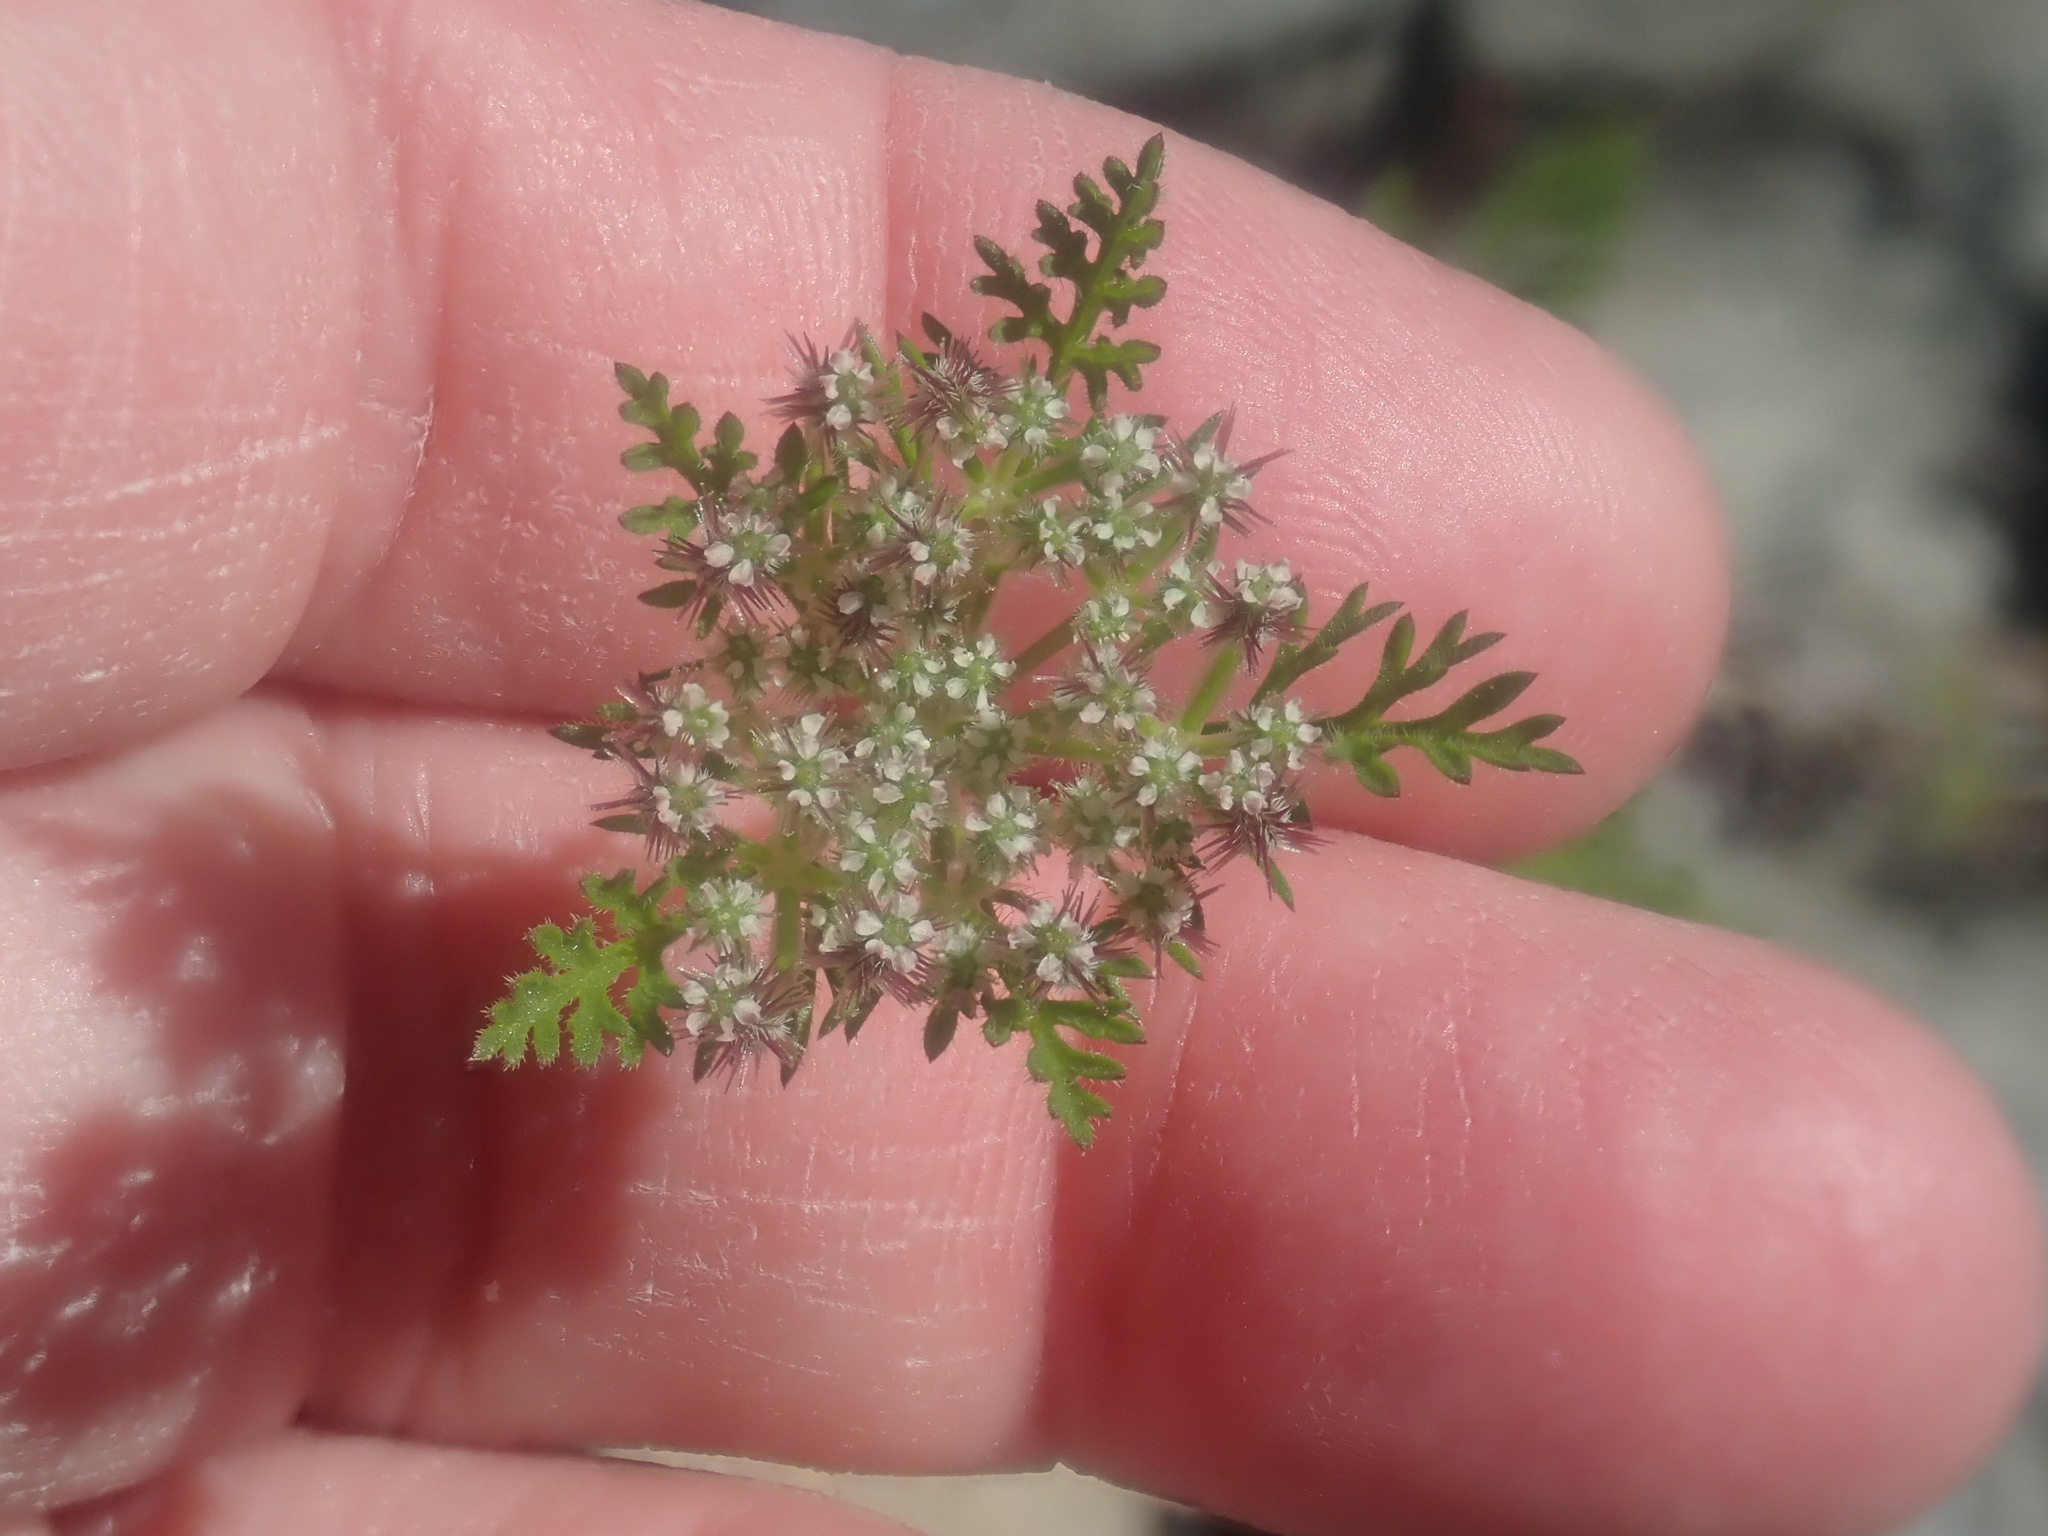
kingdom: Plantae
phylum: Tracheophyta
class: Magnoliopsida
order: Apiales
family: Apiaceae
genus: Daucus
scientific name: Daucus pusillus
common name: Southwest wild carrot
